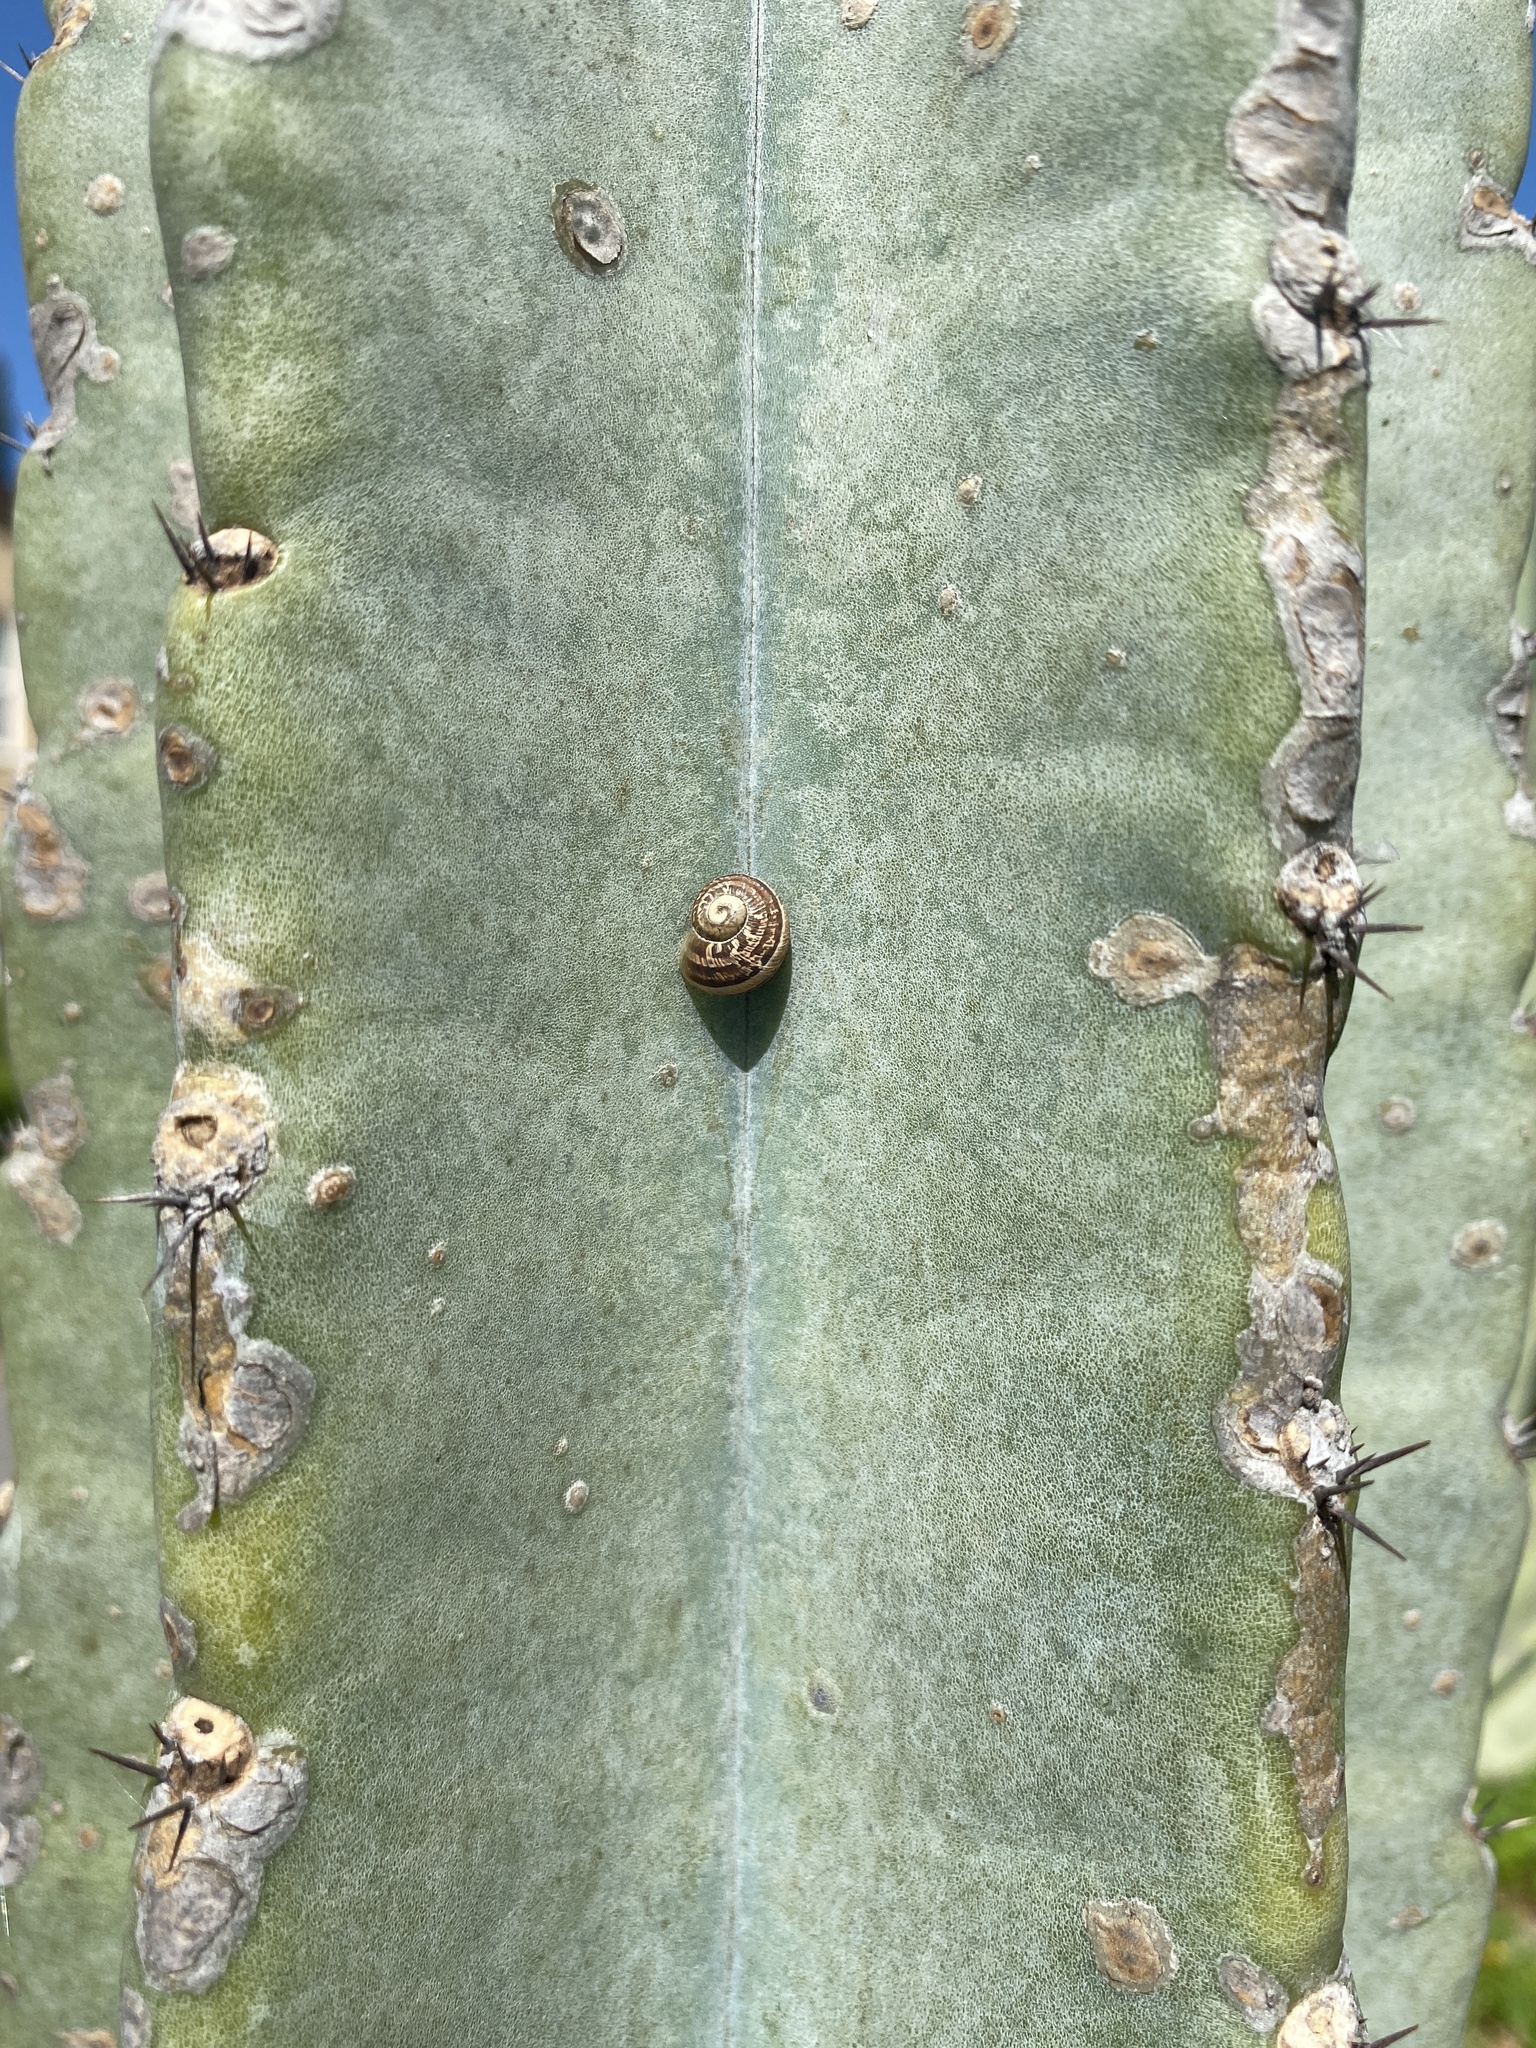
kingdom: Animalia
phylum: Mollusca
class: Gastropoda
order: Stylommatophora
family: Helicidae
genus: Cornu
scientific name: Cornu aspersum
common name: Brown garden snail
